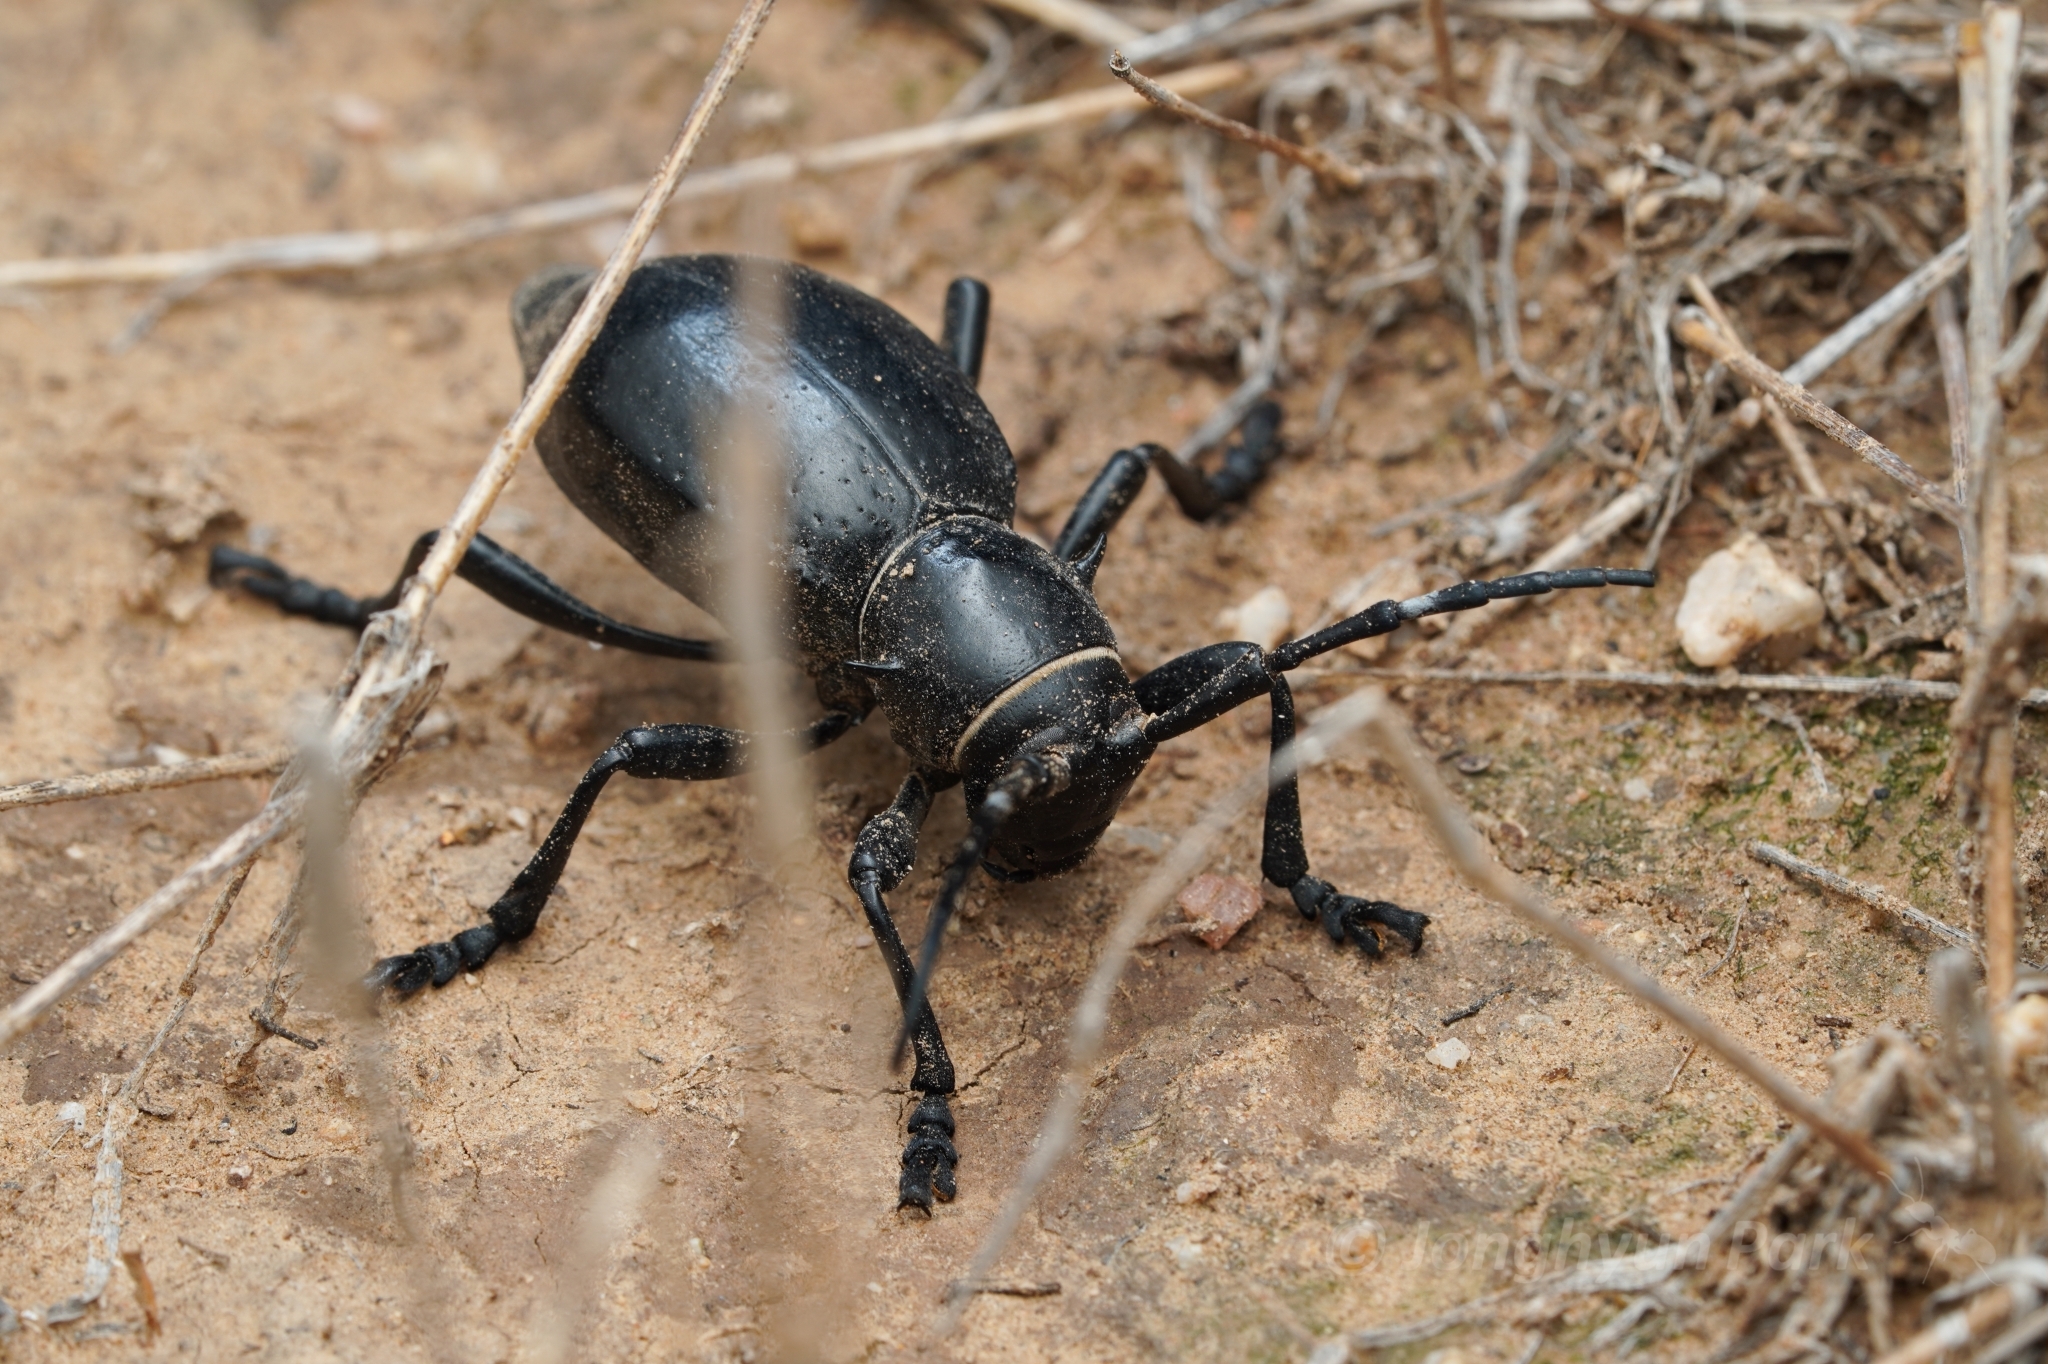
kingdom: Animalia
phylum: Arthropoda
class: Insecta
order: Coleoptera
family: Cerambycidae
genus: Moneilema
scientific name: Moneilema gigas
